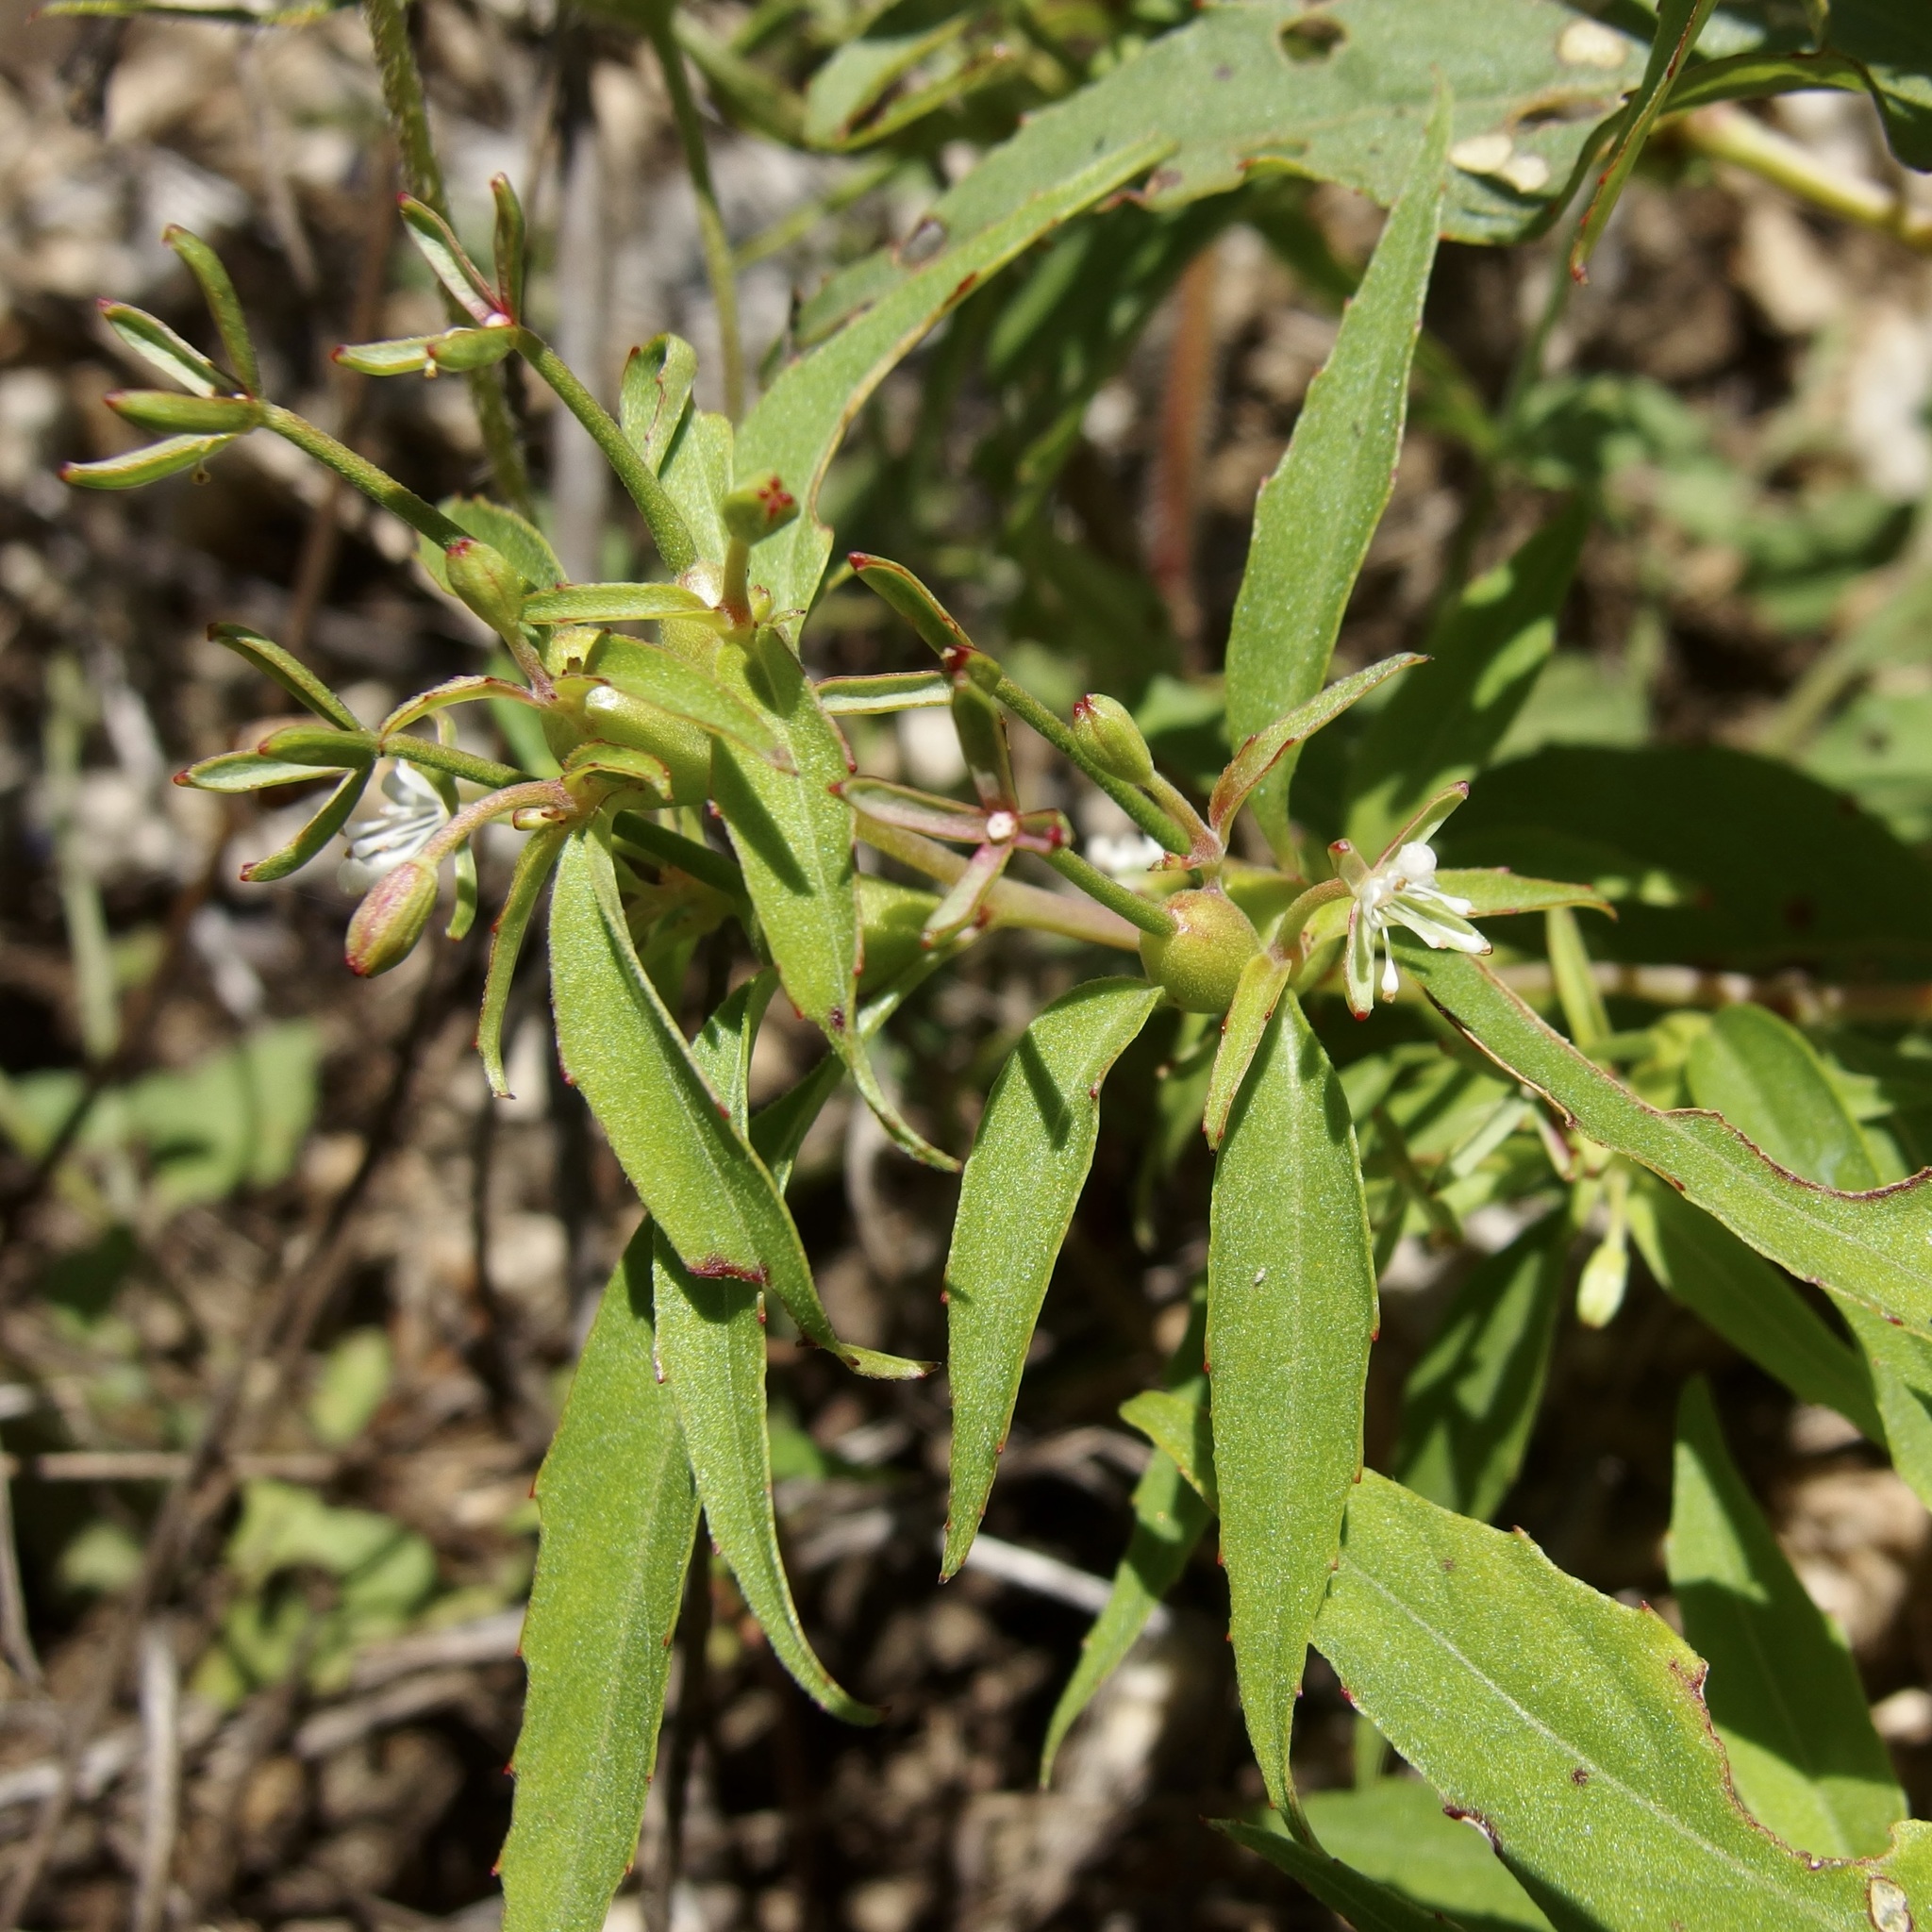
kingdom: Plantae
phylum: Tracheophyta
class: Magnoliopsida
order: Myrtales
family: Onagraceae
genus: Gongylocarpus
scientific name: Gongylocarpus rubricaulis
